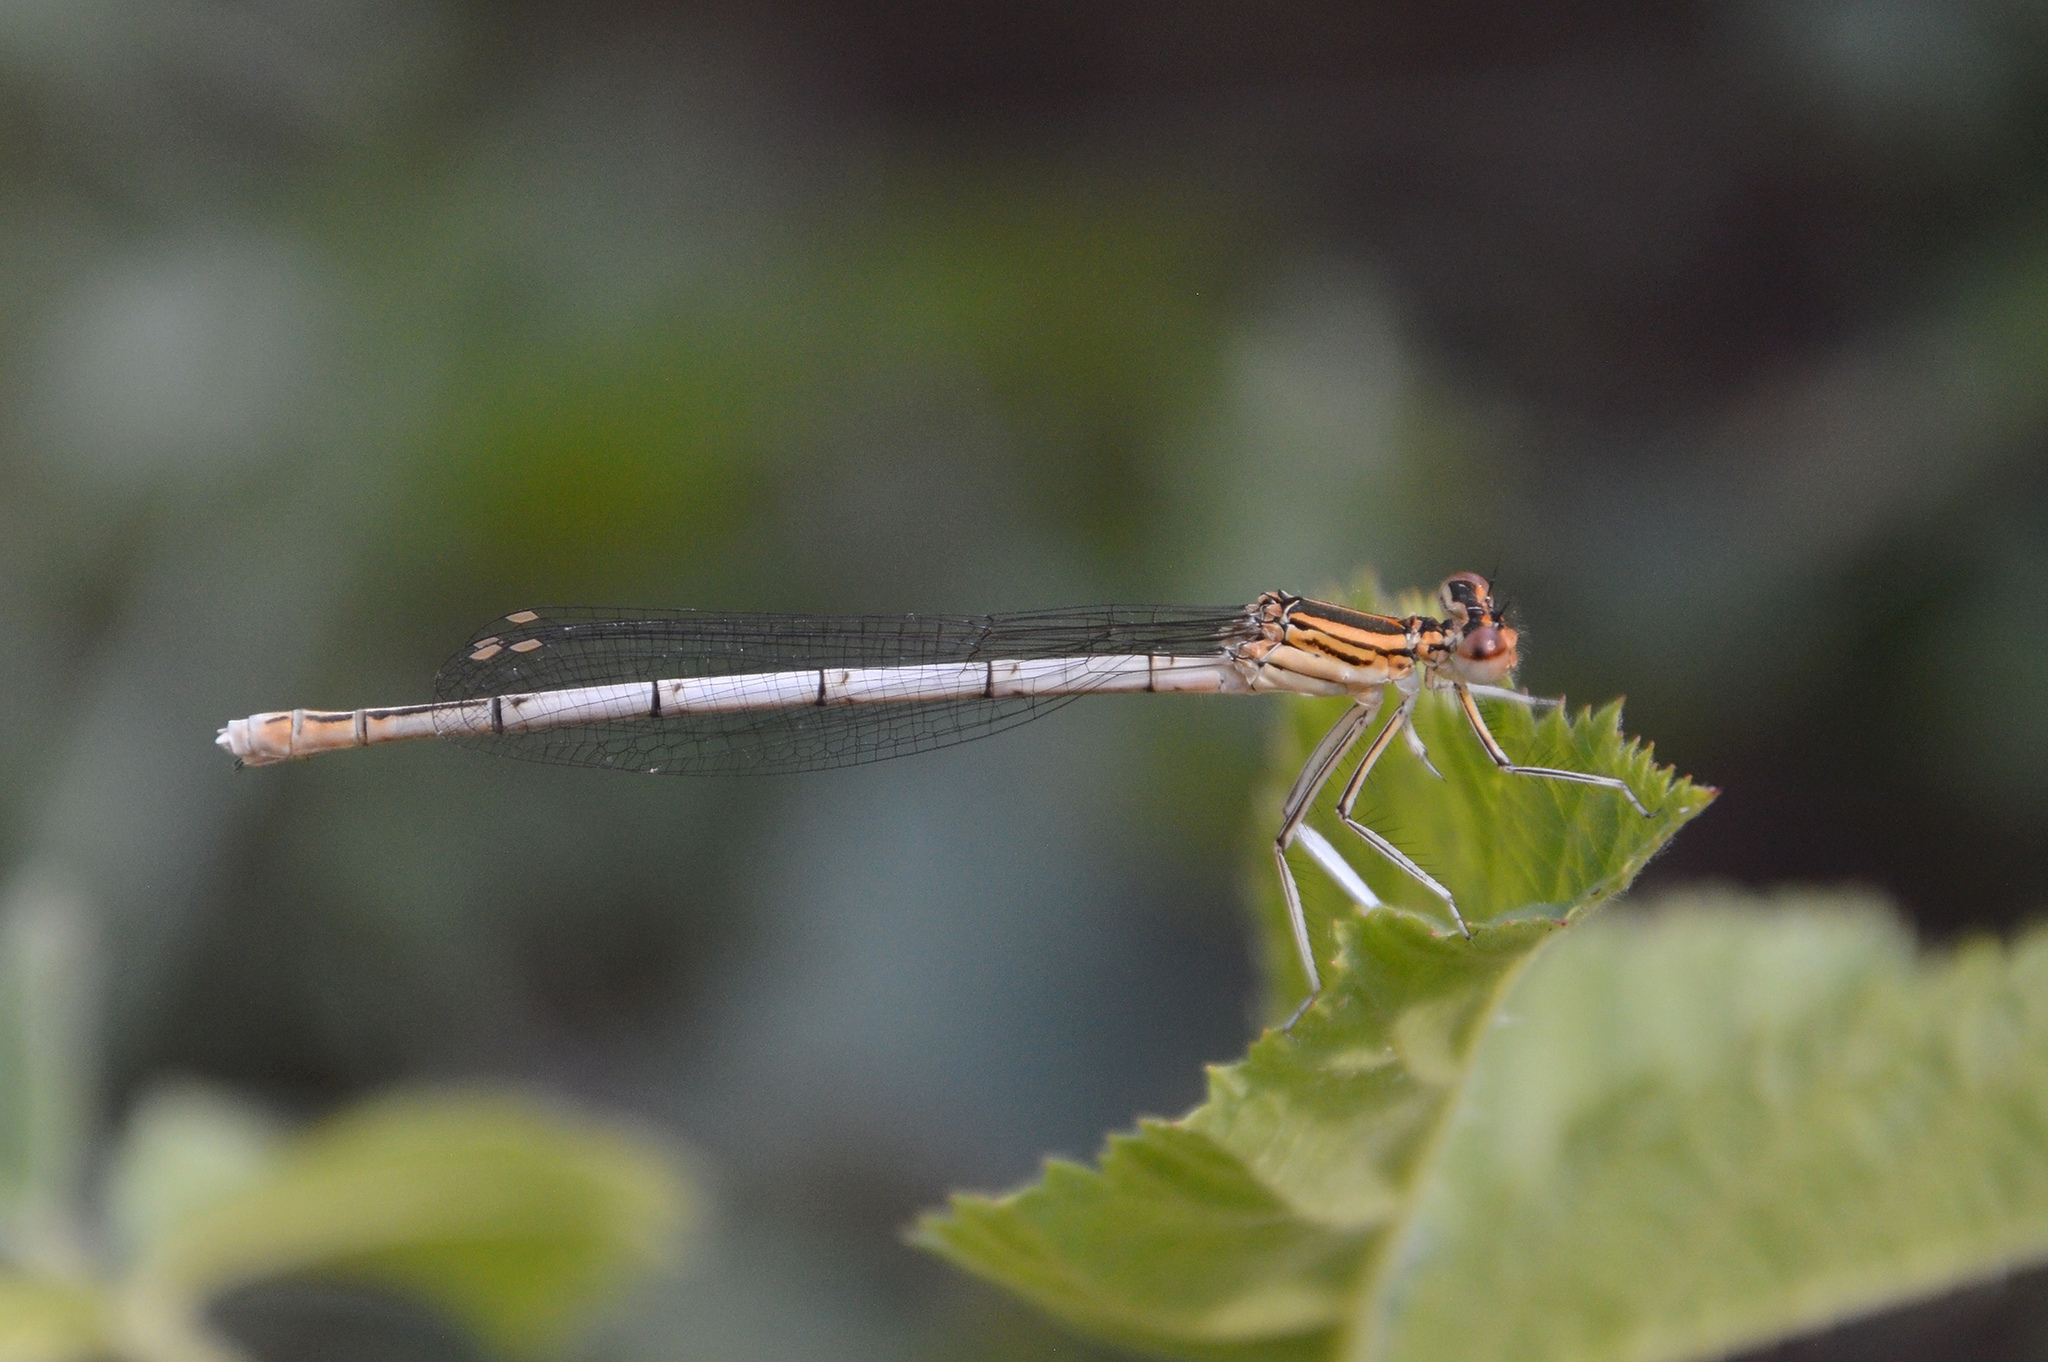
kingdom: Animalia
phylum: Arthropoda
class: Insecta
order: Odonata
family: Platycnemididae
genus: Platycnemis
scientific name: Platycnemis pennipes
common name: White-legged damselfly
